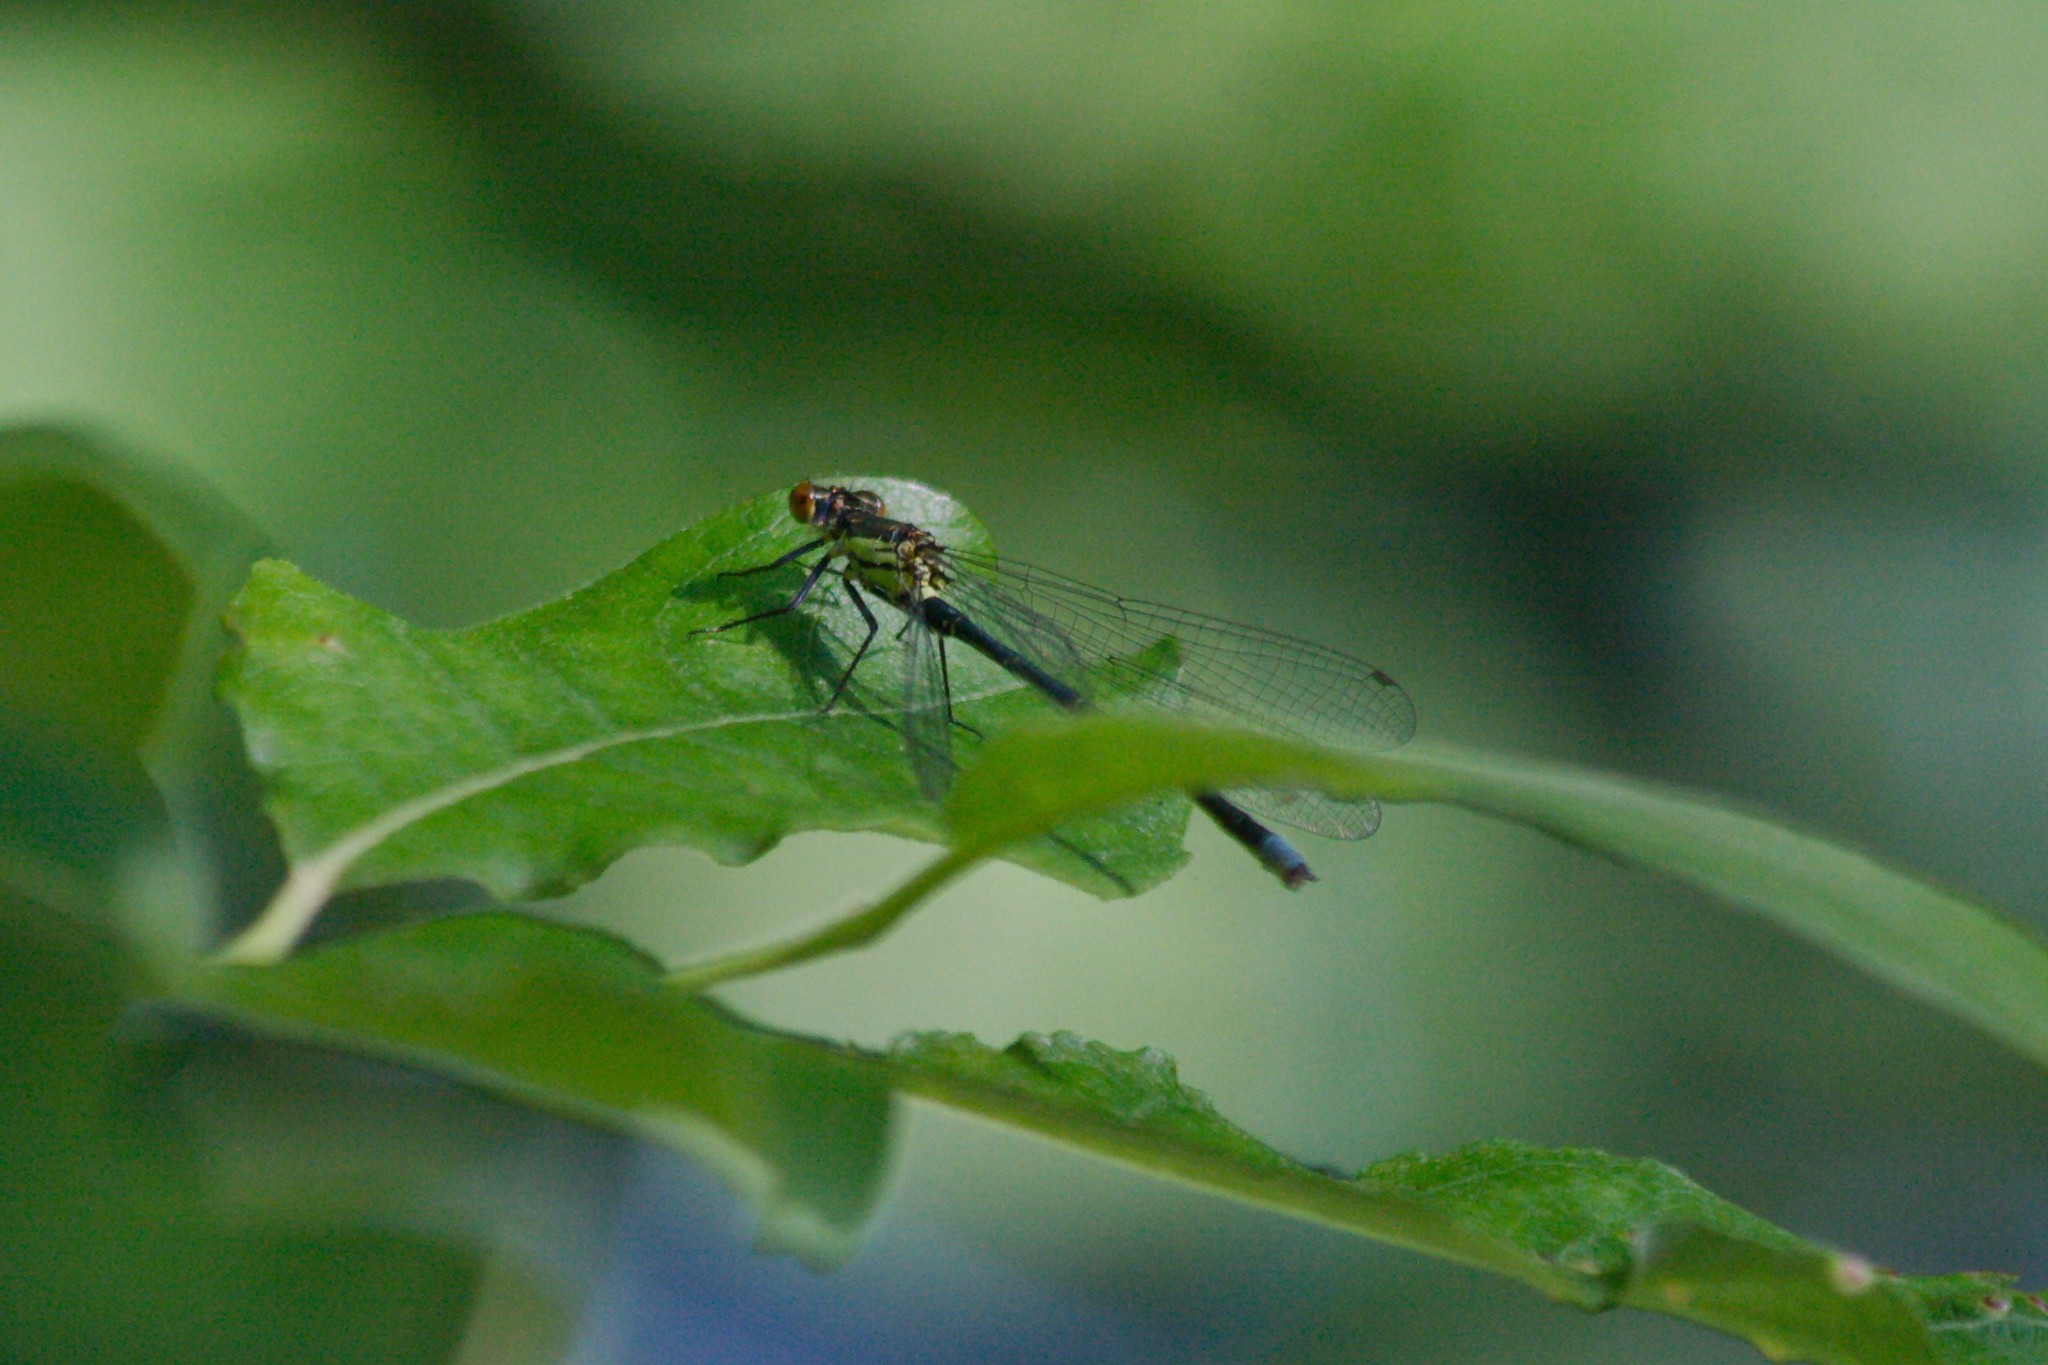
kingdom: Animalia
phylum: Arthropoda
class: Insecta
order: Odonata
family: Coenagrionidae
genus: Erythromma
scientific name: Erythromma najas
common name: Red-eyed damselfly
